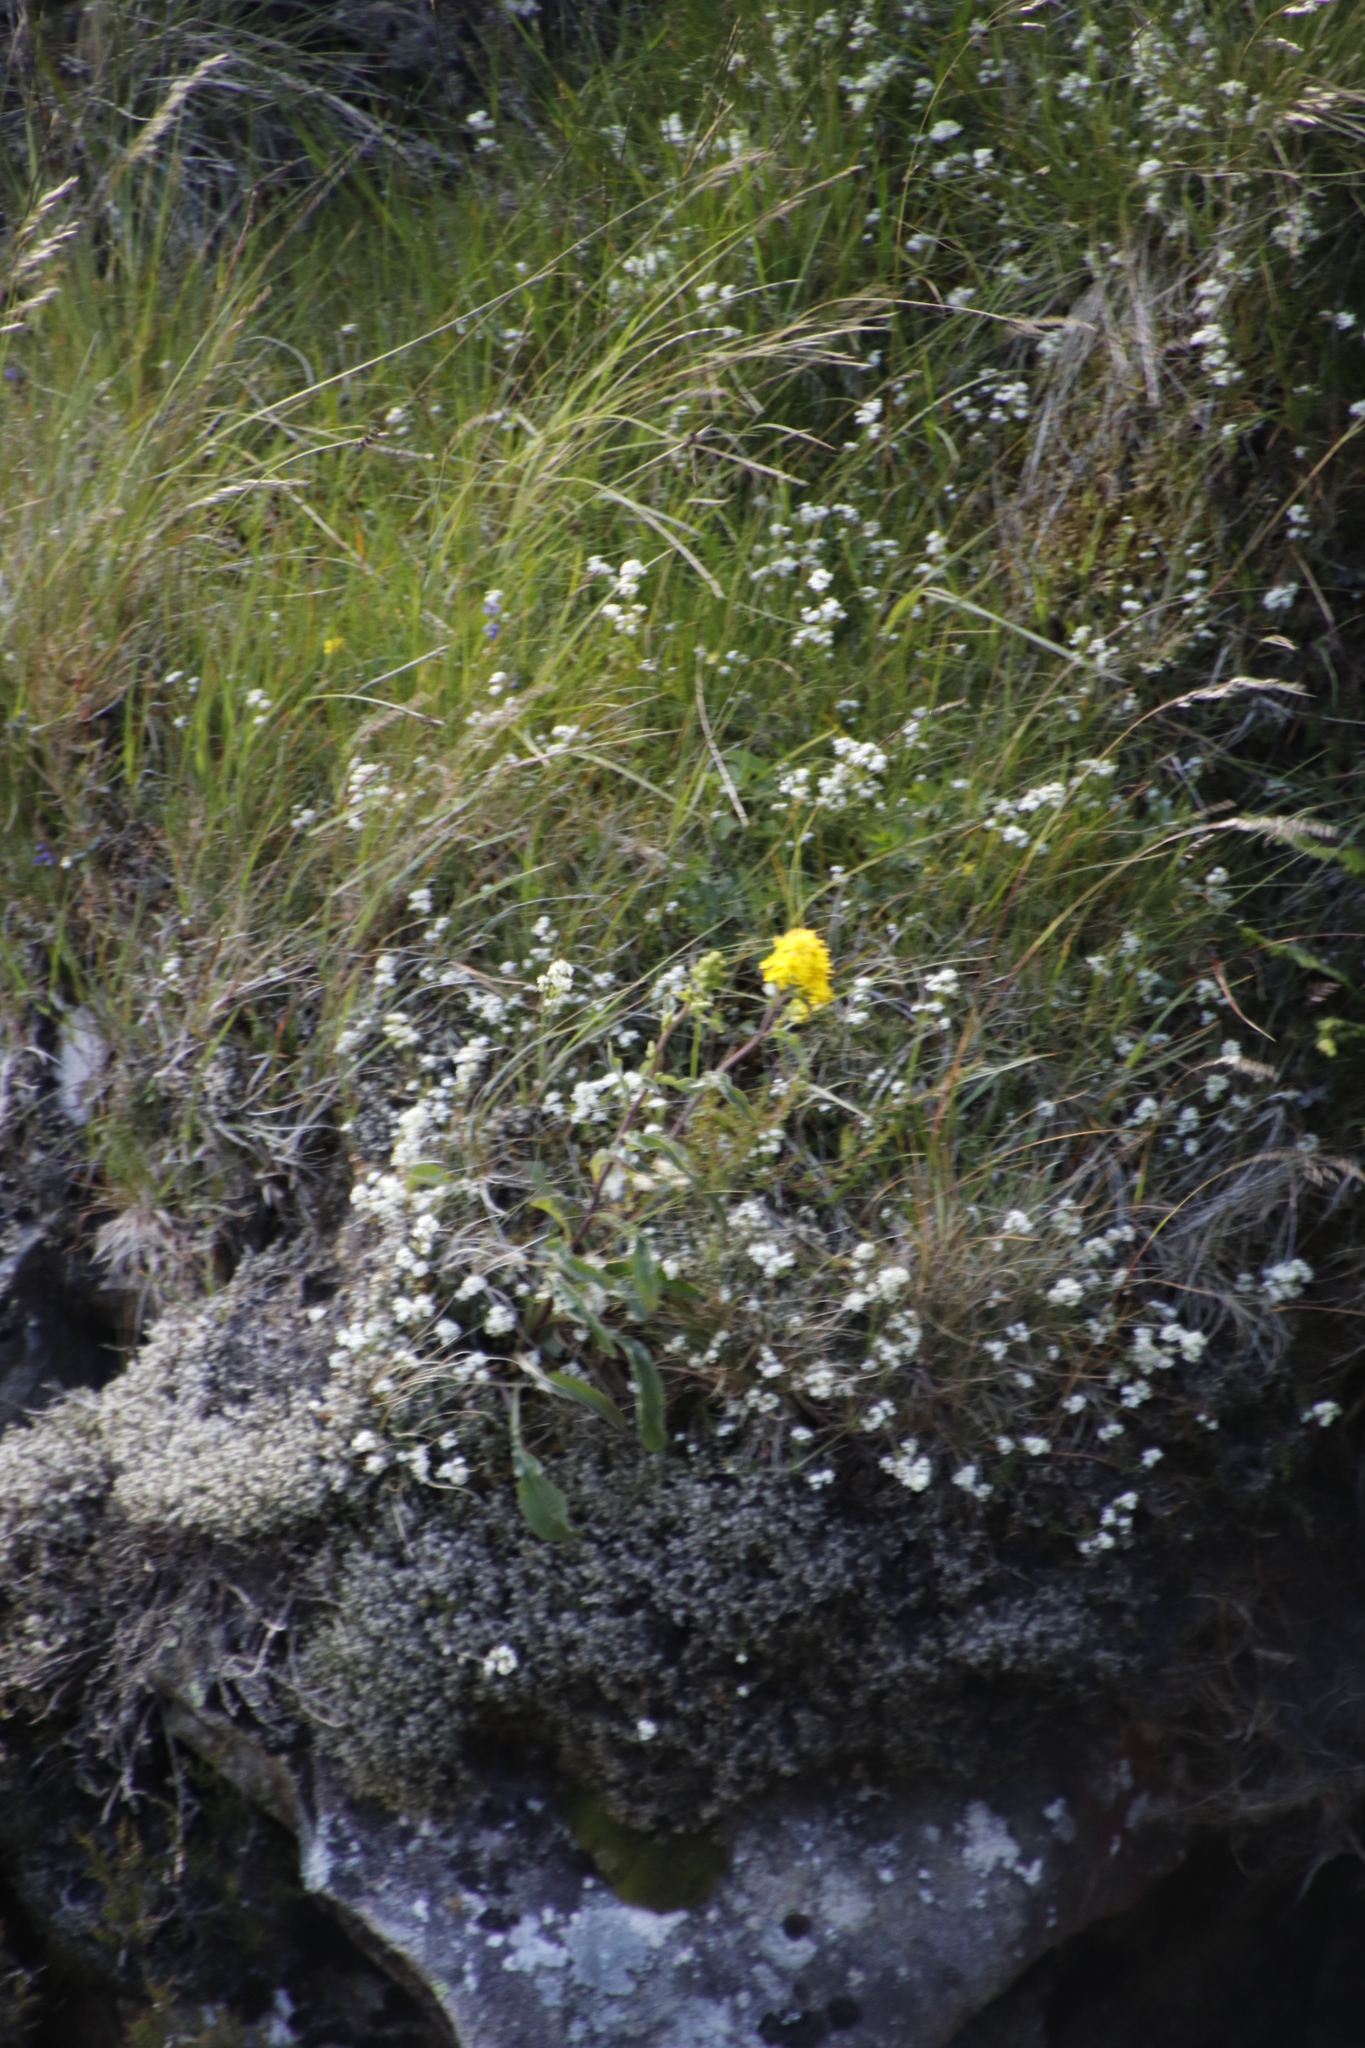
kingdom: Plantae
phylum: Bryophyta
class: Bryopsida
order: Grimmiales
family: Grimmiaceae
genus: Racomitrium
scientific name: Racomitrium lanuginosum
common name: Hoary rock moss
